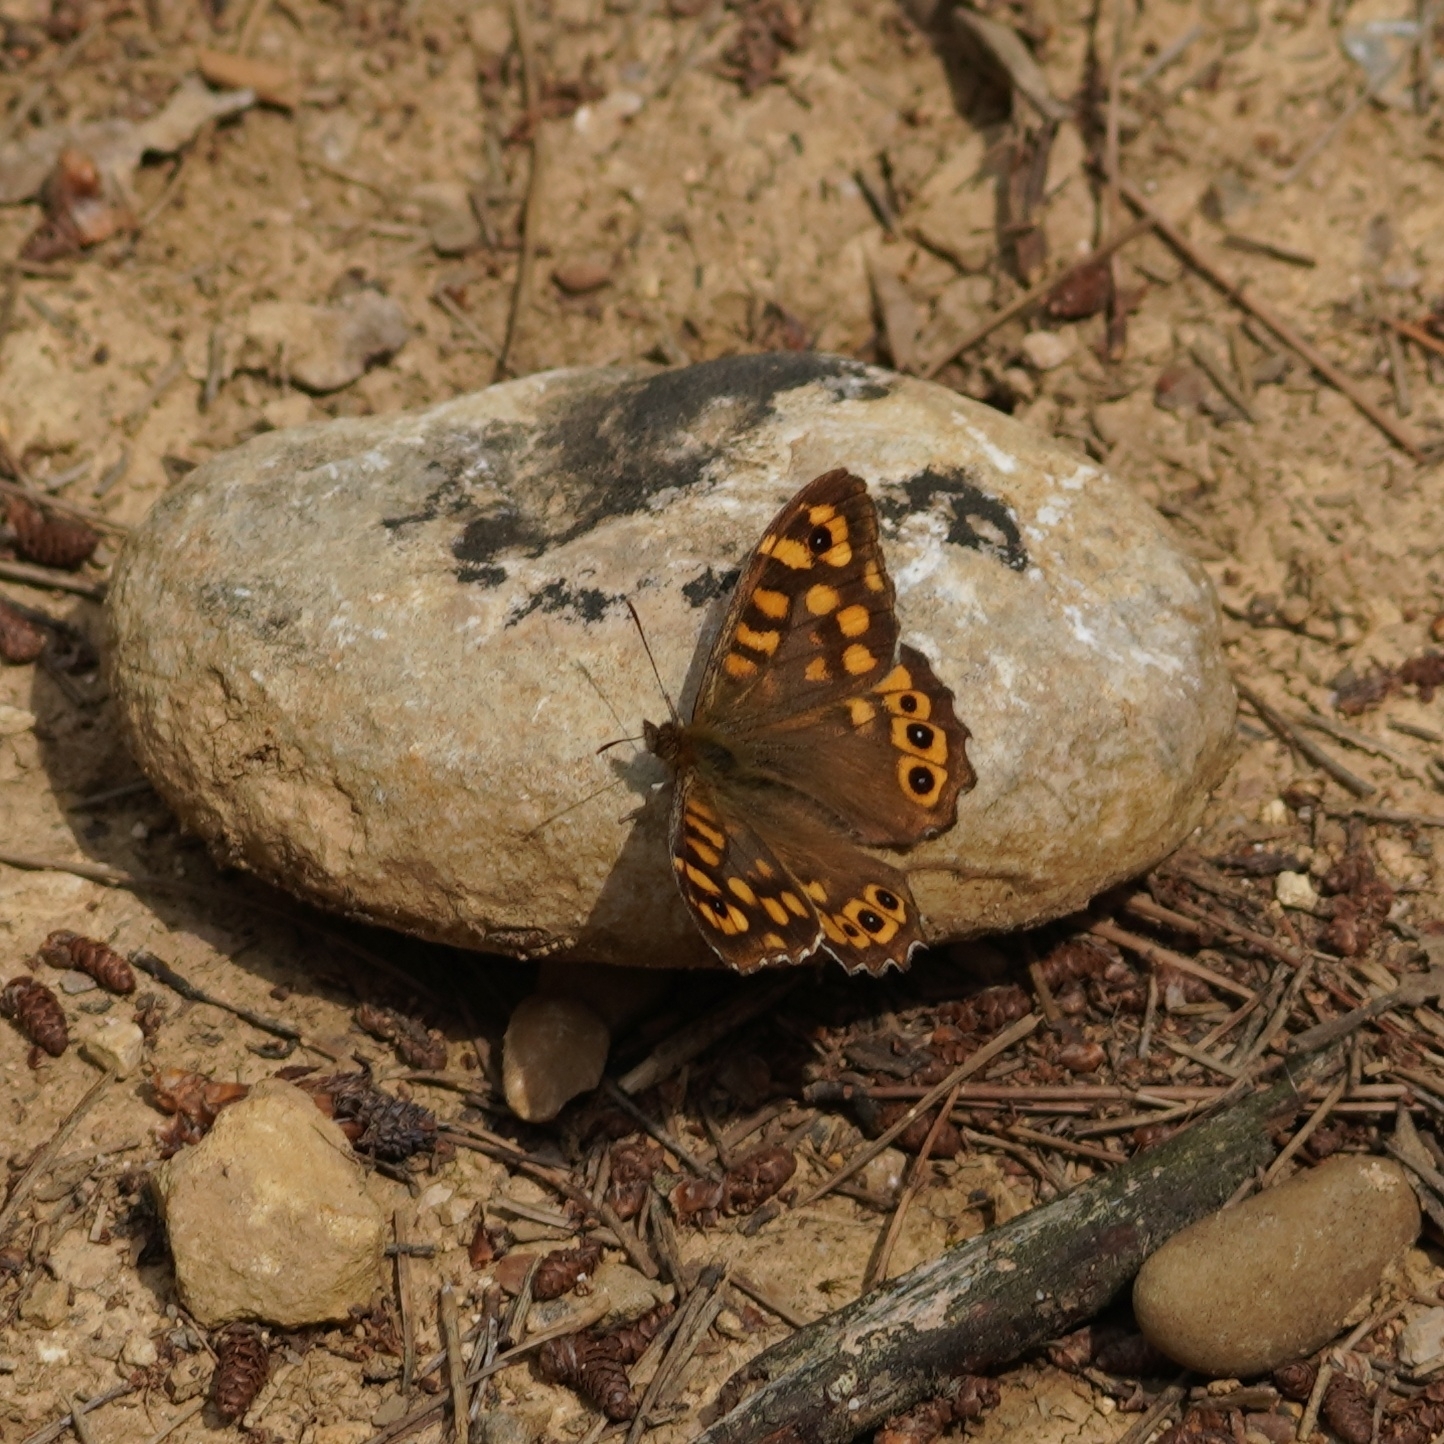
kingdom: Animalia
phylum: Arthropoda
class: Insecta
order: Lepidoptera
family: Nymphalidae
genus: Pararge
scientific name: Pararge aegeria
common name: Speckled wood
